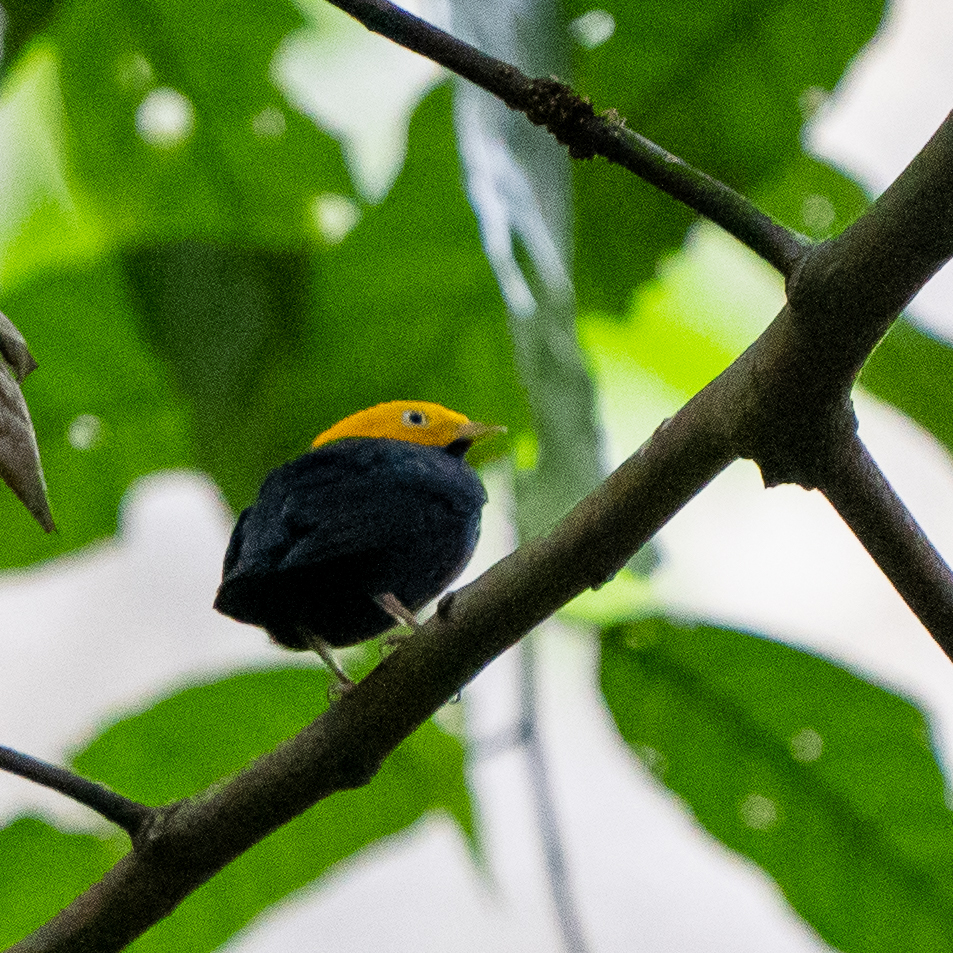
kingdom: Animalia
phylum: Chordata
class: Aves
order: Passeriformes
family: Pipridae
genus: Pipra
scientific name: Pipra erythrocephala
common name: Golden-headed manakin
